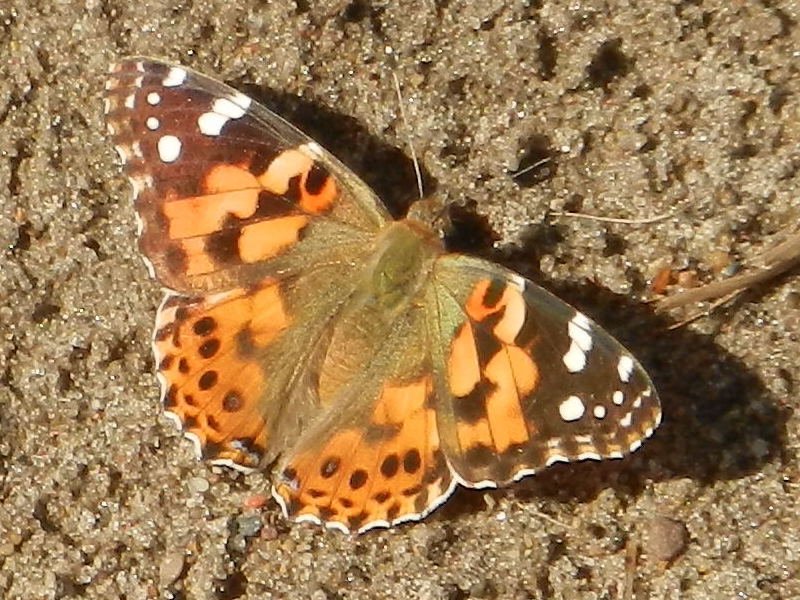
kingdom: Animalia
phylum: Arthropoda
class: Insecta
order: Lepidoptera
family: Nymphalidae
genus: Vanessa
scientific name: Vanessa cardui
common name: Painted lady
